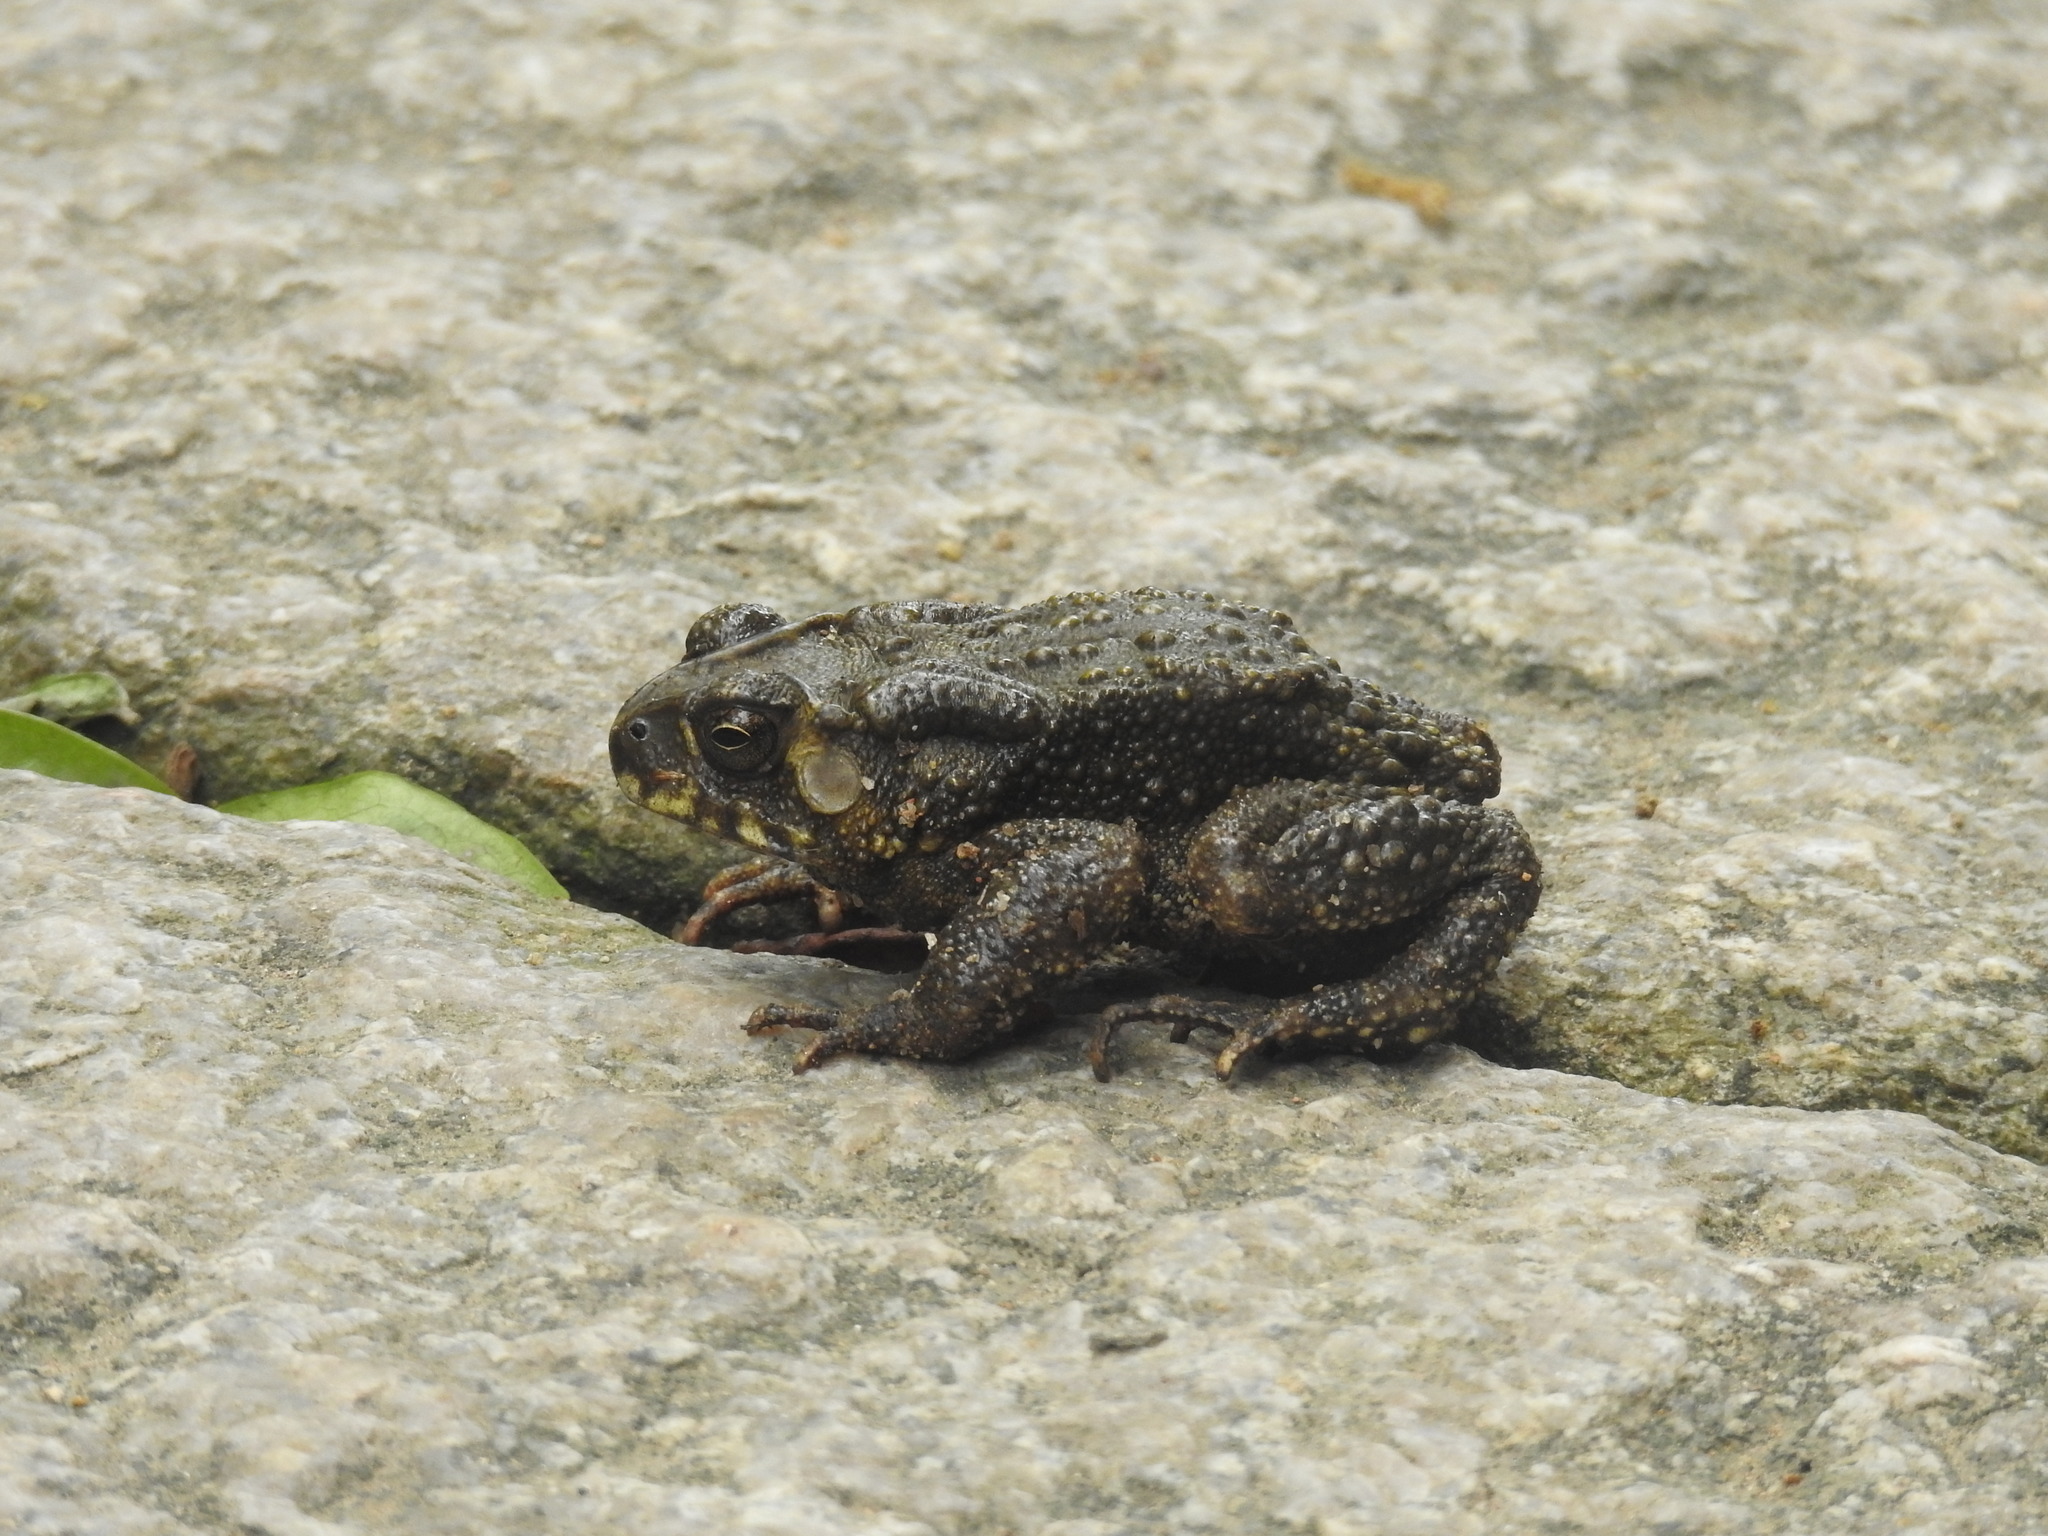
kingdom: Animalia
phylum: Chordata
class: Amphibia
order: Anura
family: Bufonidae
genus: Duttaphrynus
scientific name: Duttaphrynus melanostictus
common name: Common sunda toad
